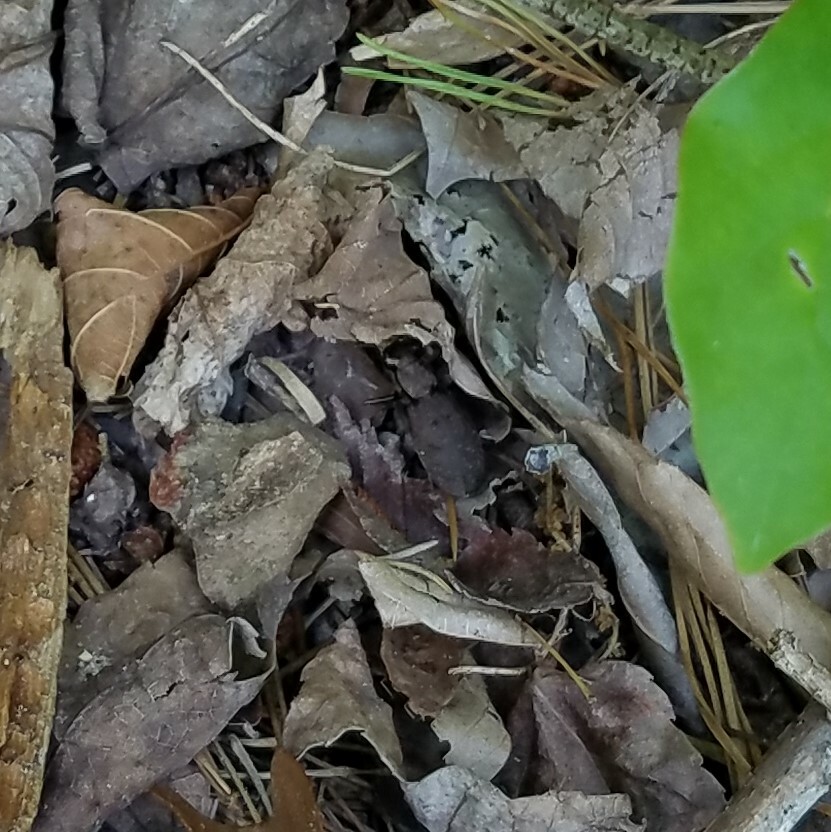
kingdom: Animalia
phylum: Arthropoda
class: Insecta
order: Coleoptera
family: Carabidae
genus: Cylindera
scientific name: Cylindera unipunctata
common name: One-spotted tiger beetle
